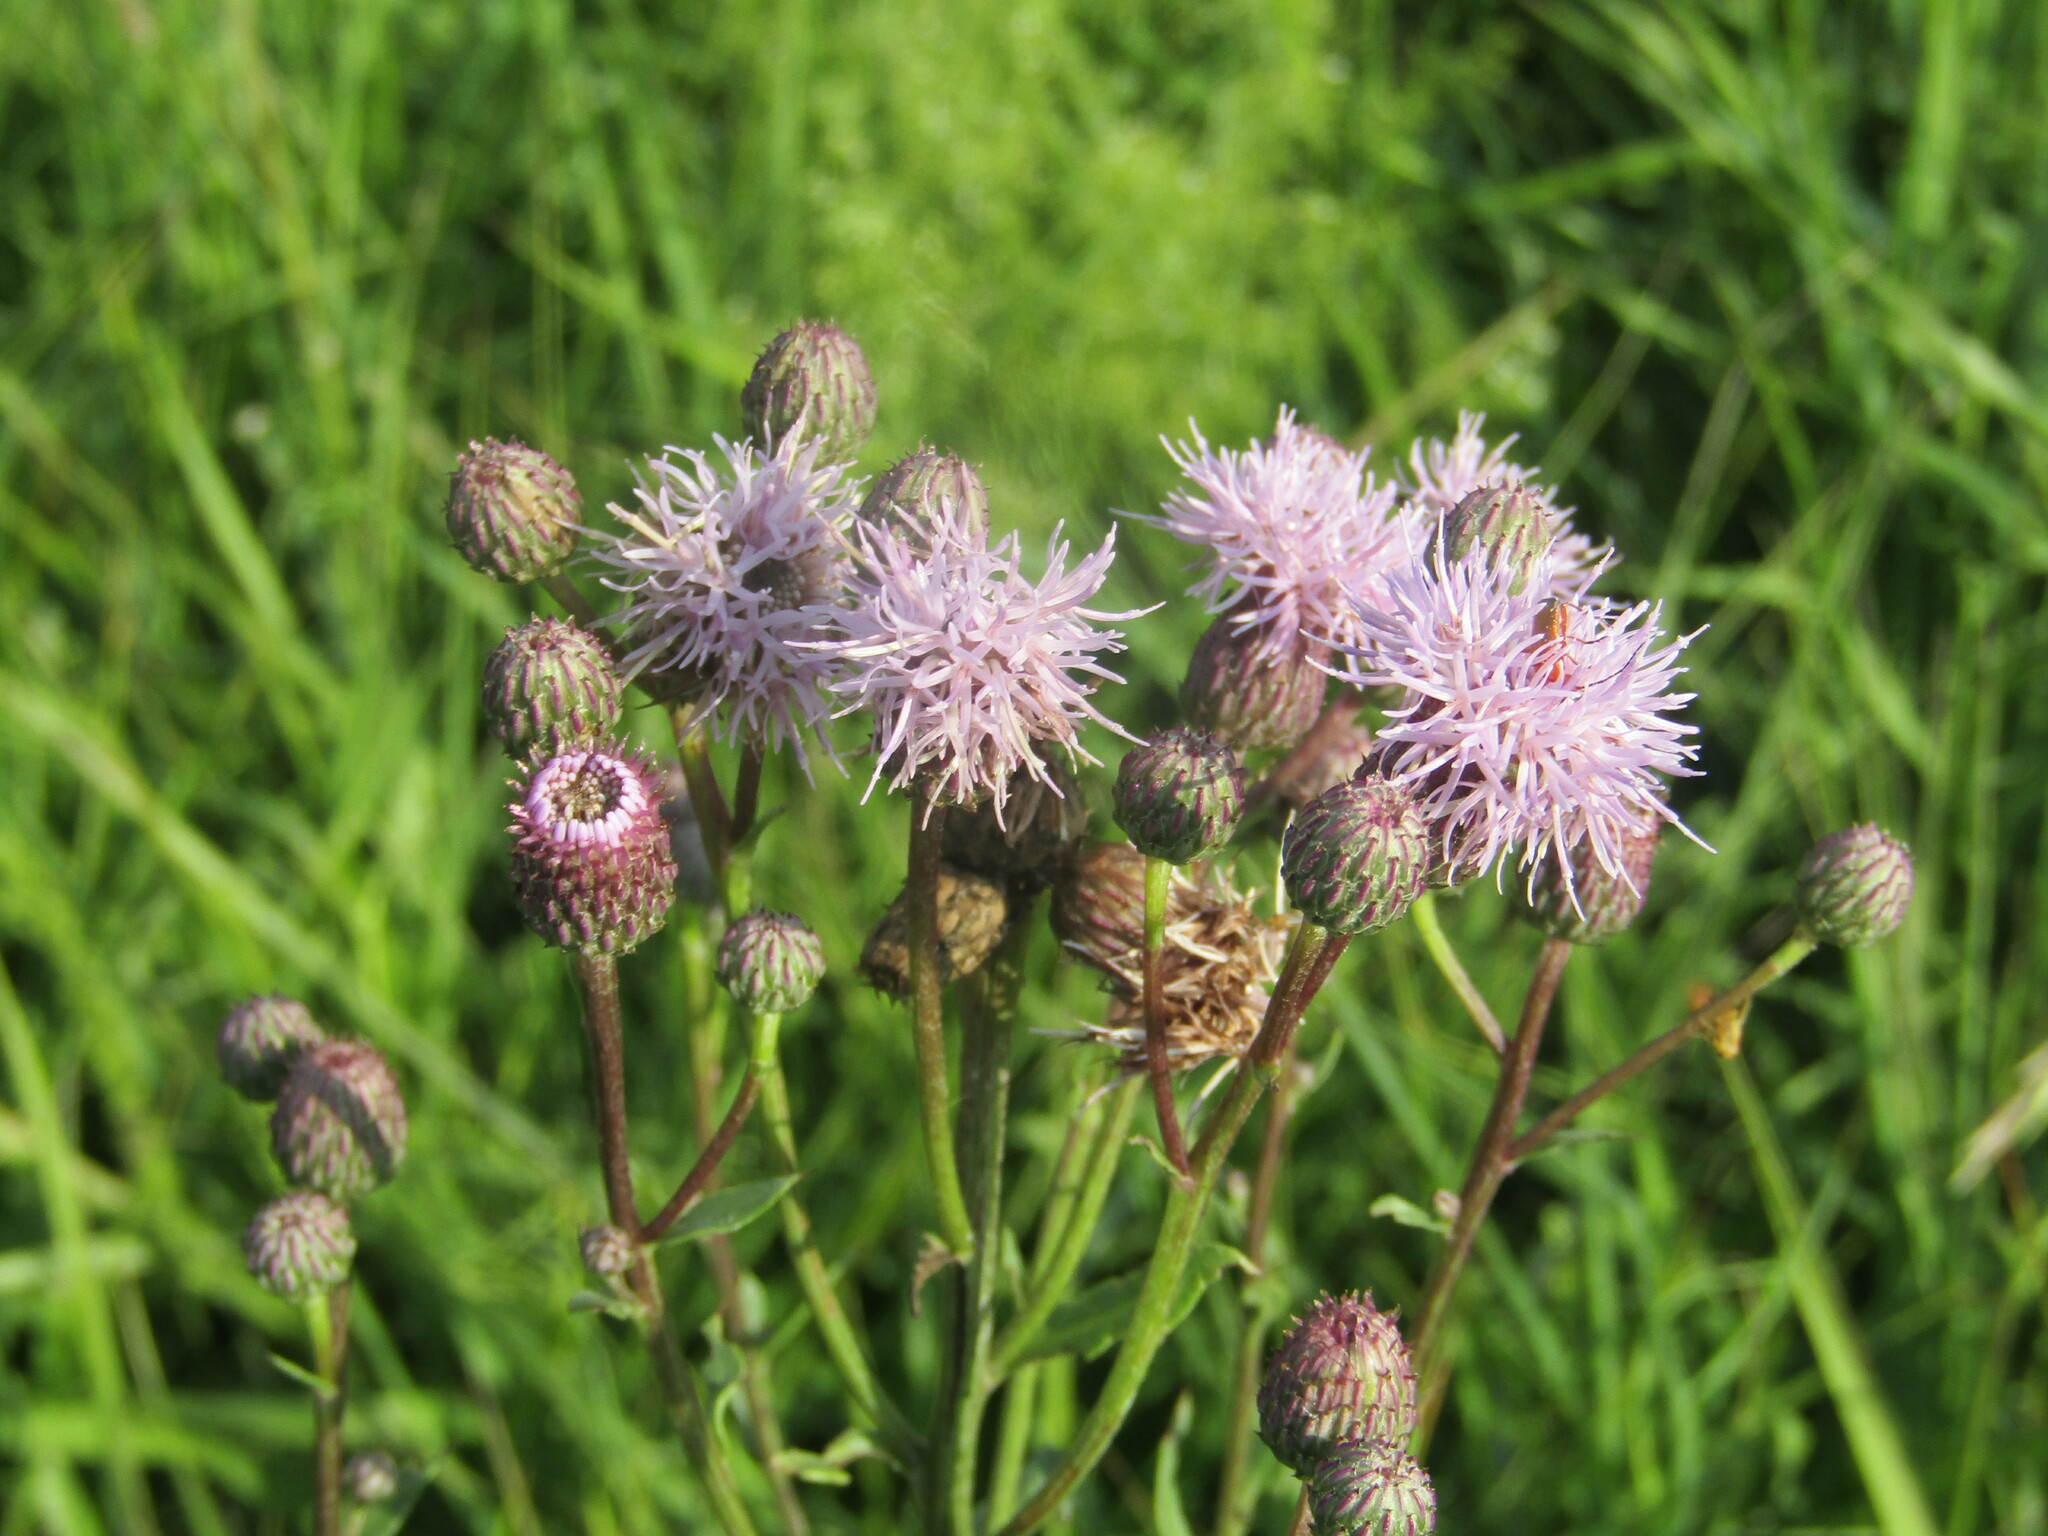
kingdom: Plantae
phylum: Tracheophyta
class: Magnoliopsida
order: Asterales
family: Asteraceae
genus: Cirsium
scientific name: Cirsium arvense
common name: Creeping thistle
